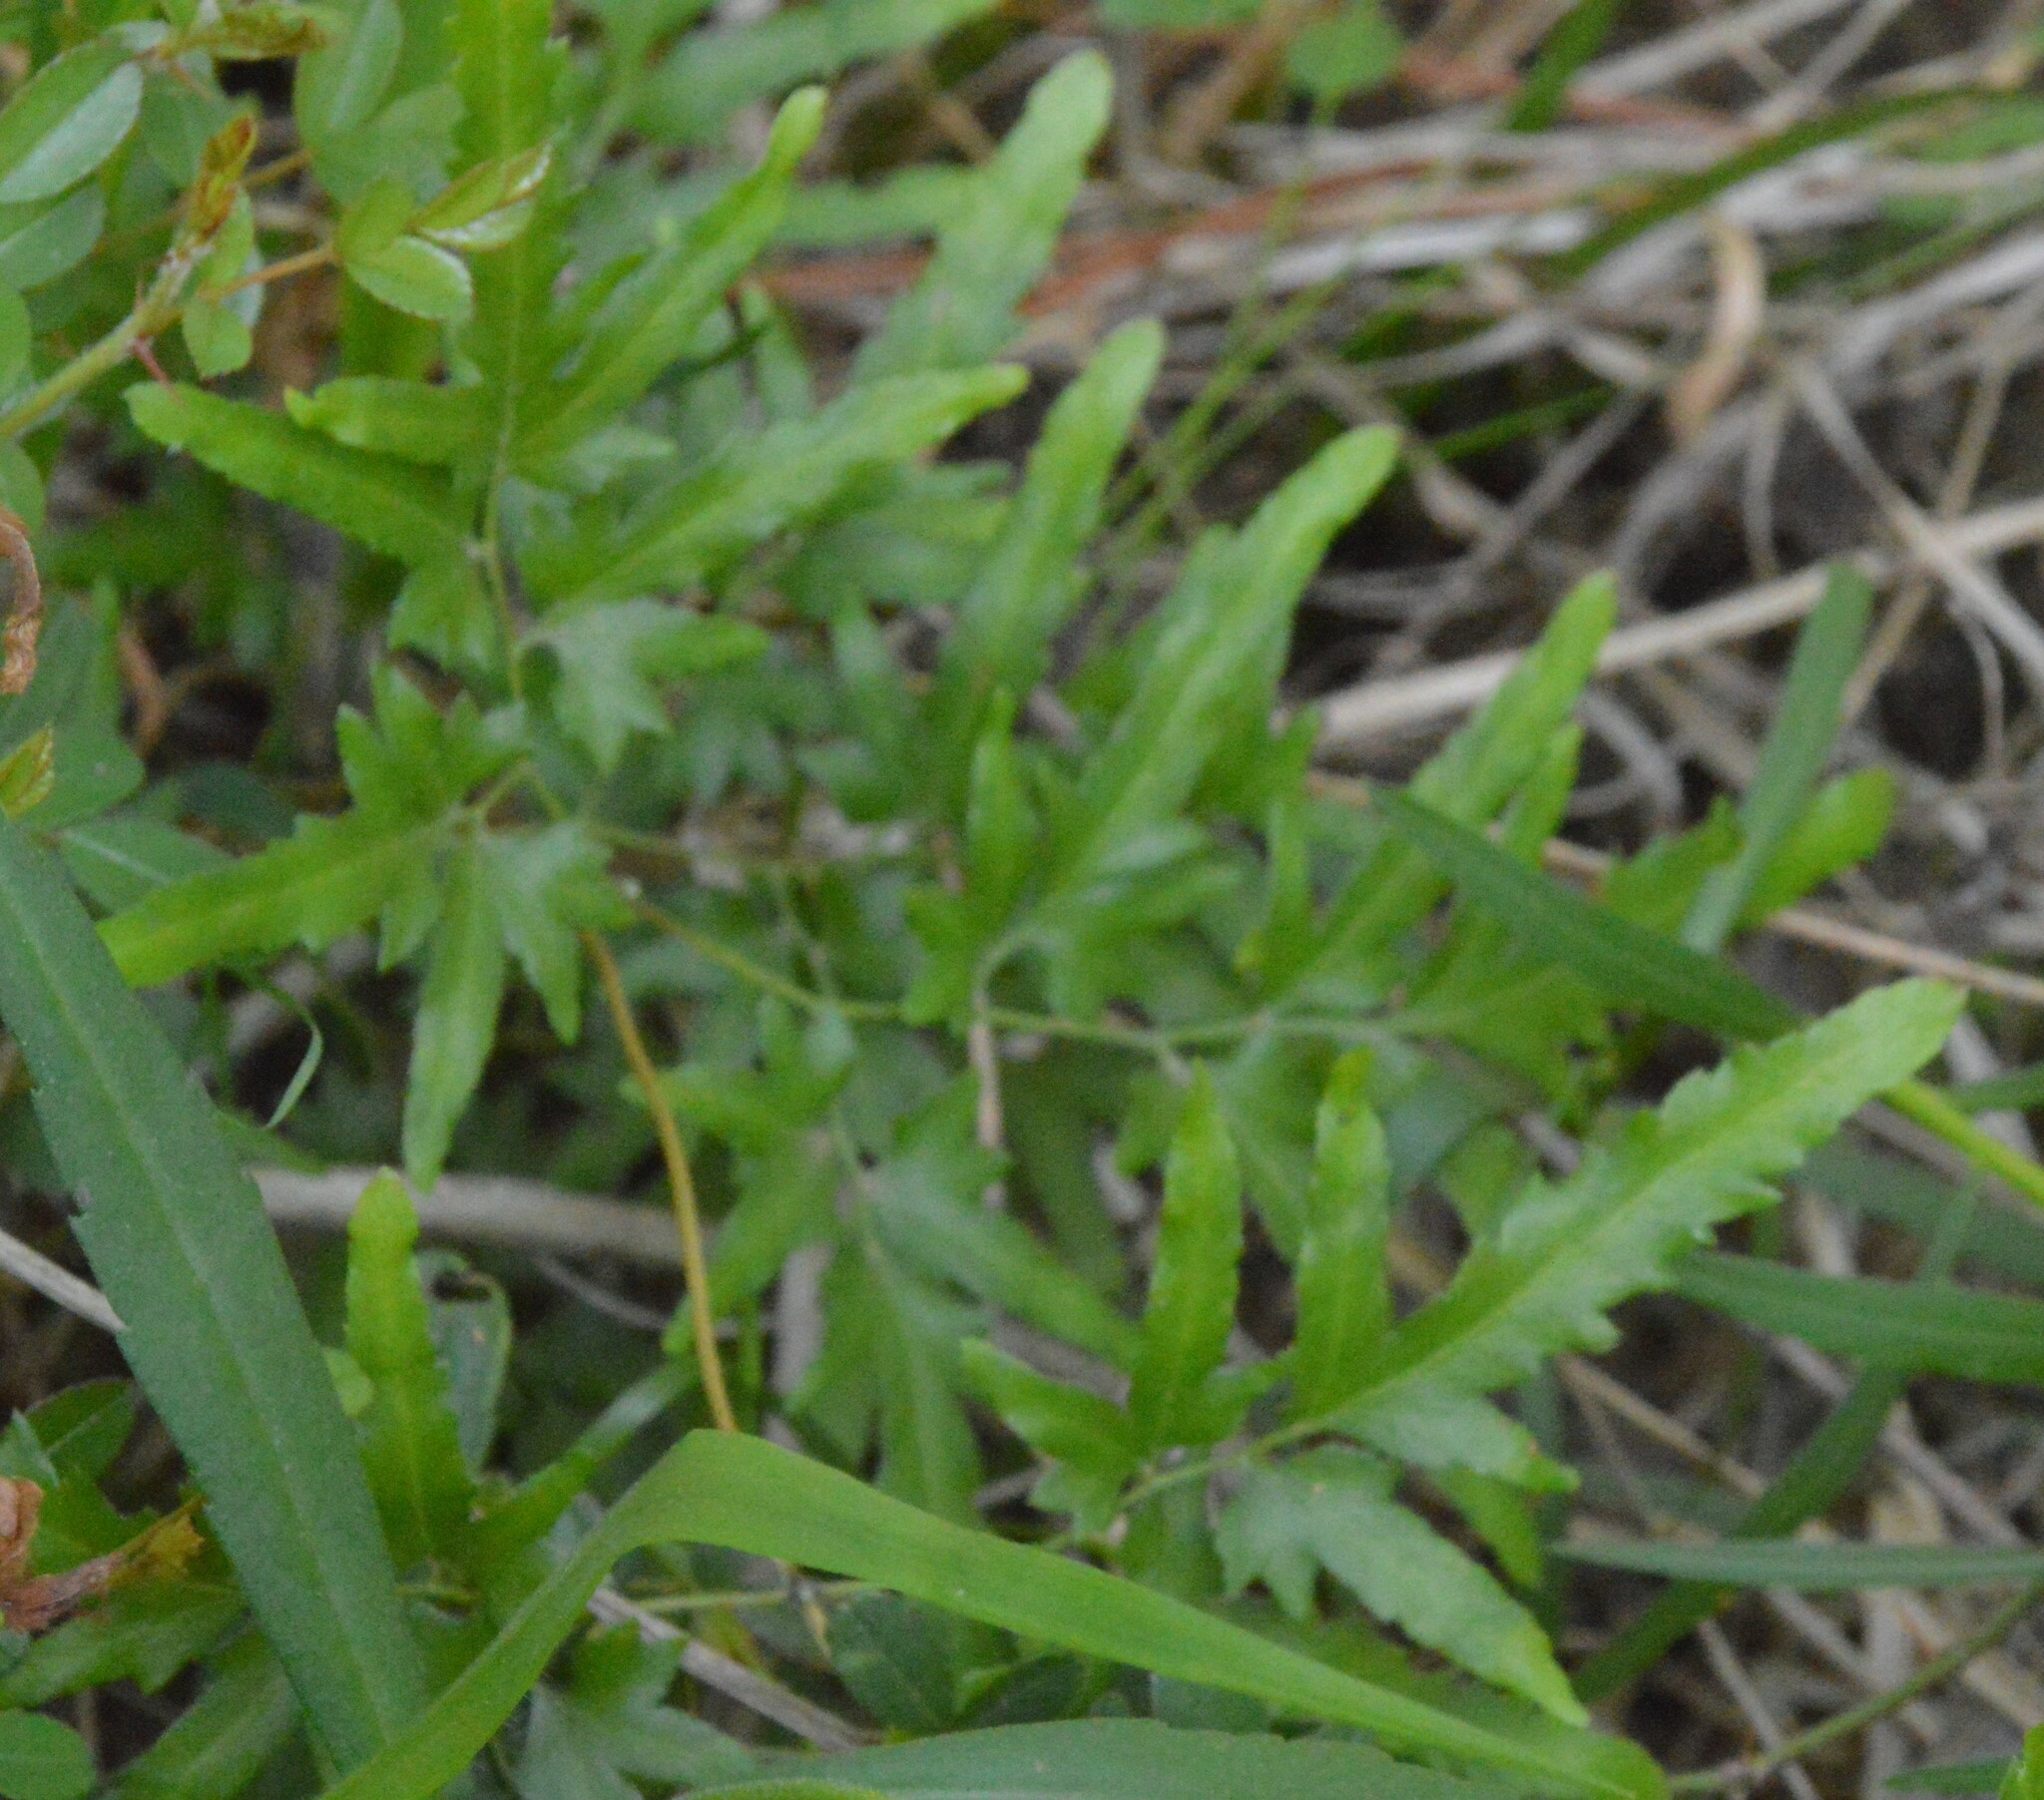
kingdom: Plantae
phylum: Tracheophyta
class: Polypodiopsida
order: Schizaeales
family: Lygodiaceae
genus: Lygodium
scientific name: Lygodium japonicum
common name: Japanese climbing fern
